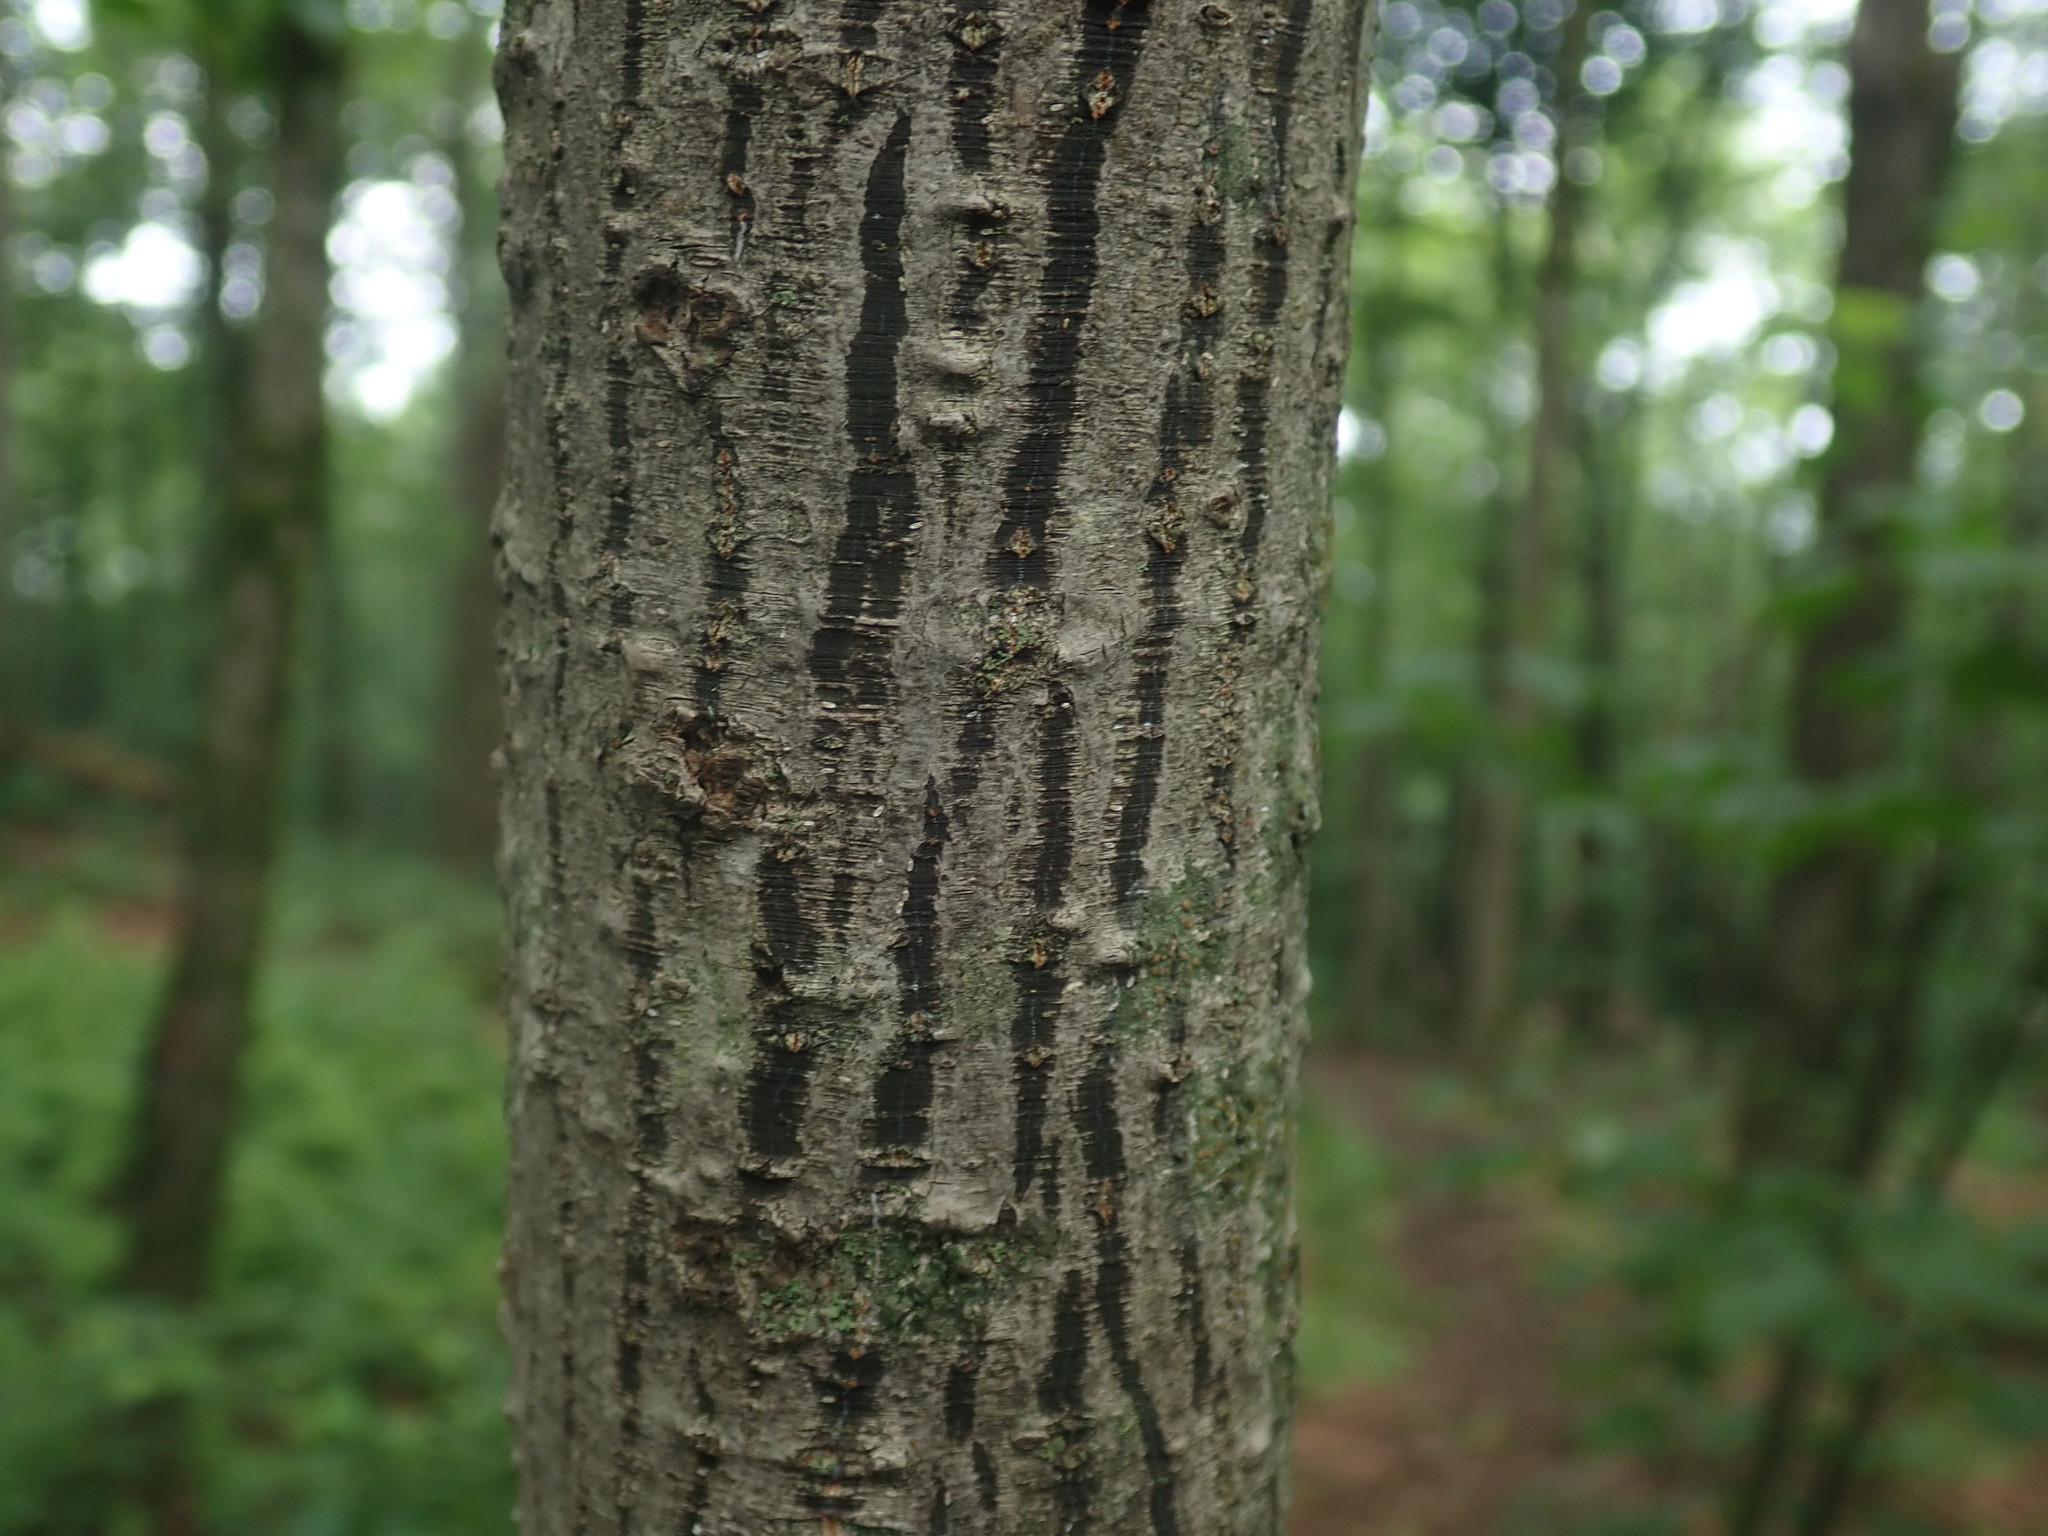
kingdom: Plantae
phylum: Tracheophyta
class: Magnoliopsida
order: Sapindales
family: Sapindaceae
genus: Acer
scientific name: Acer pensylvanicum
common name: Moosewood
